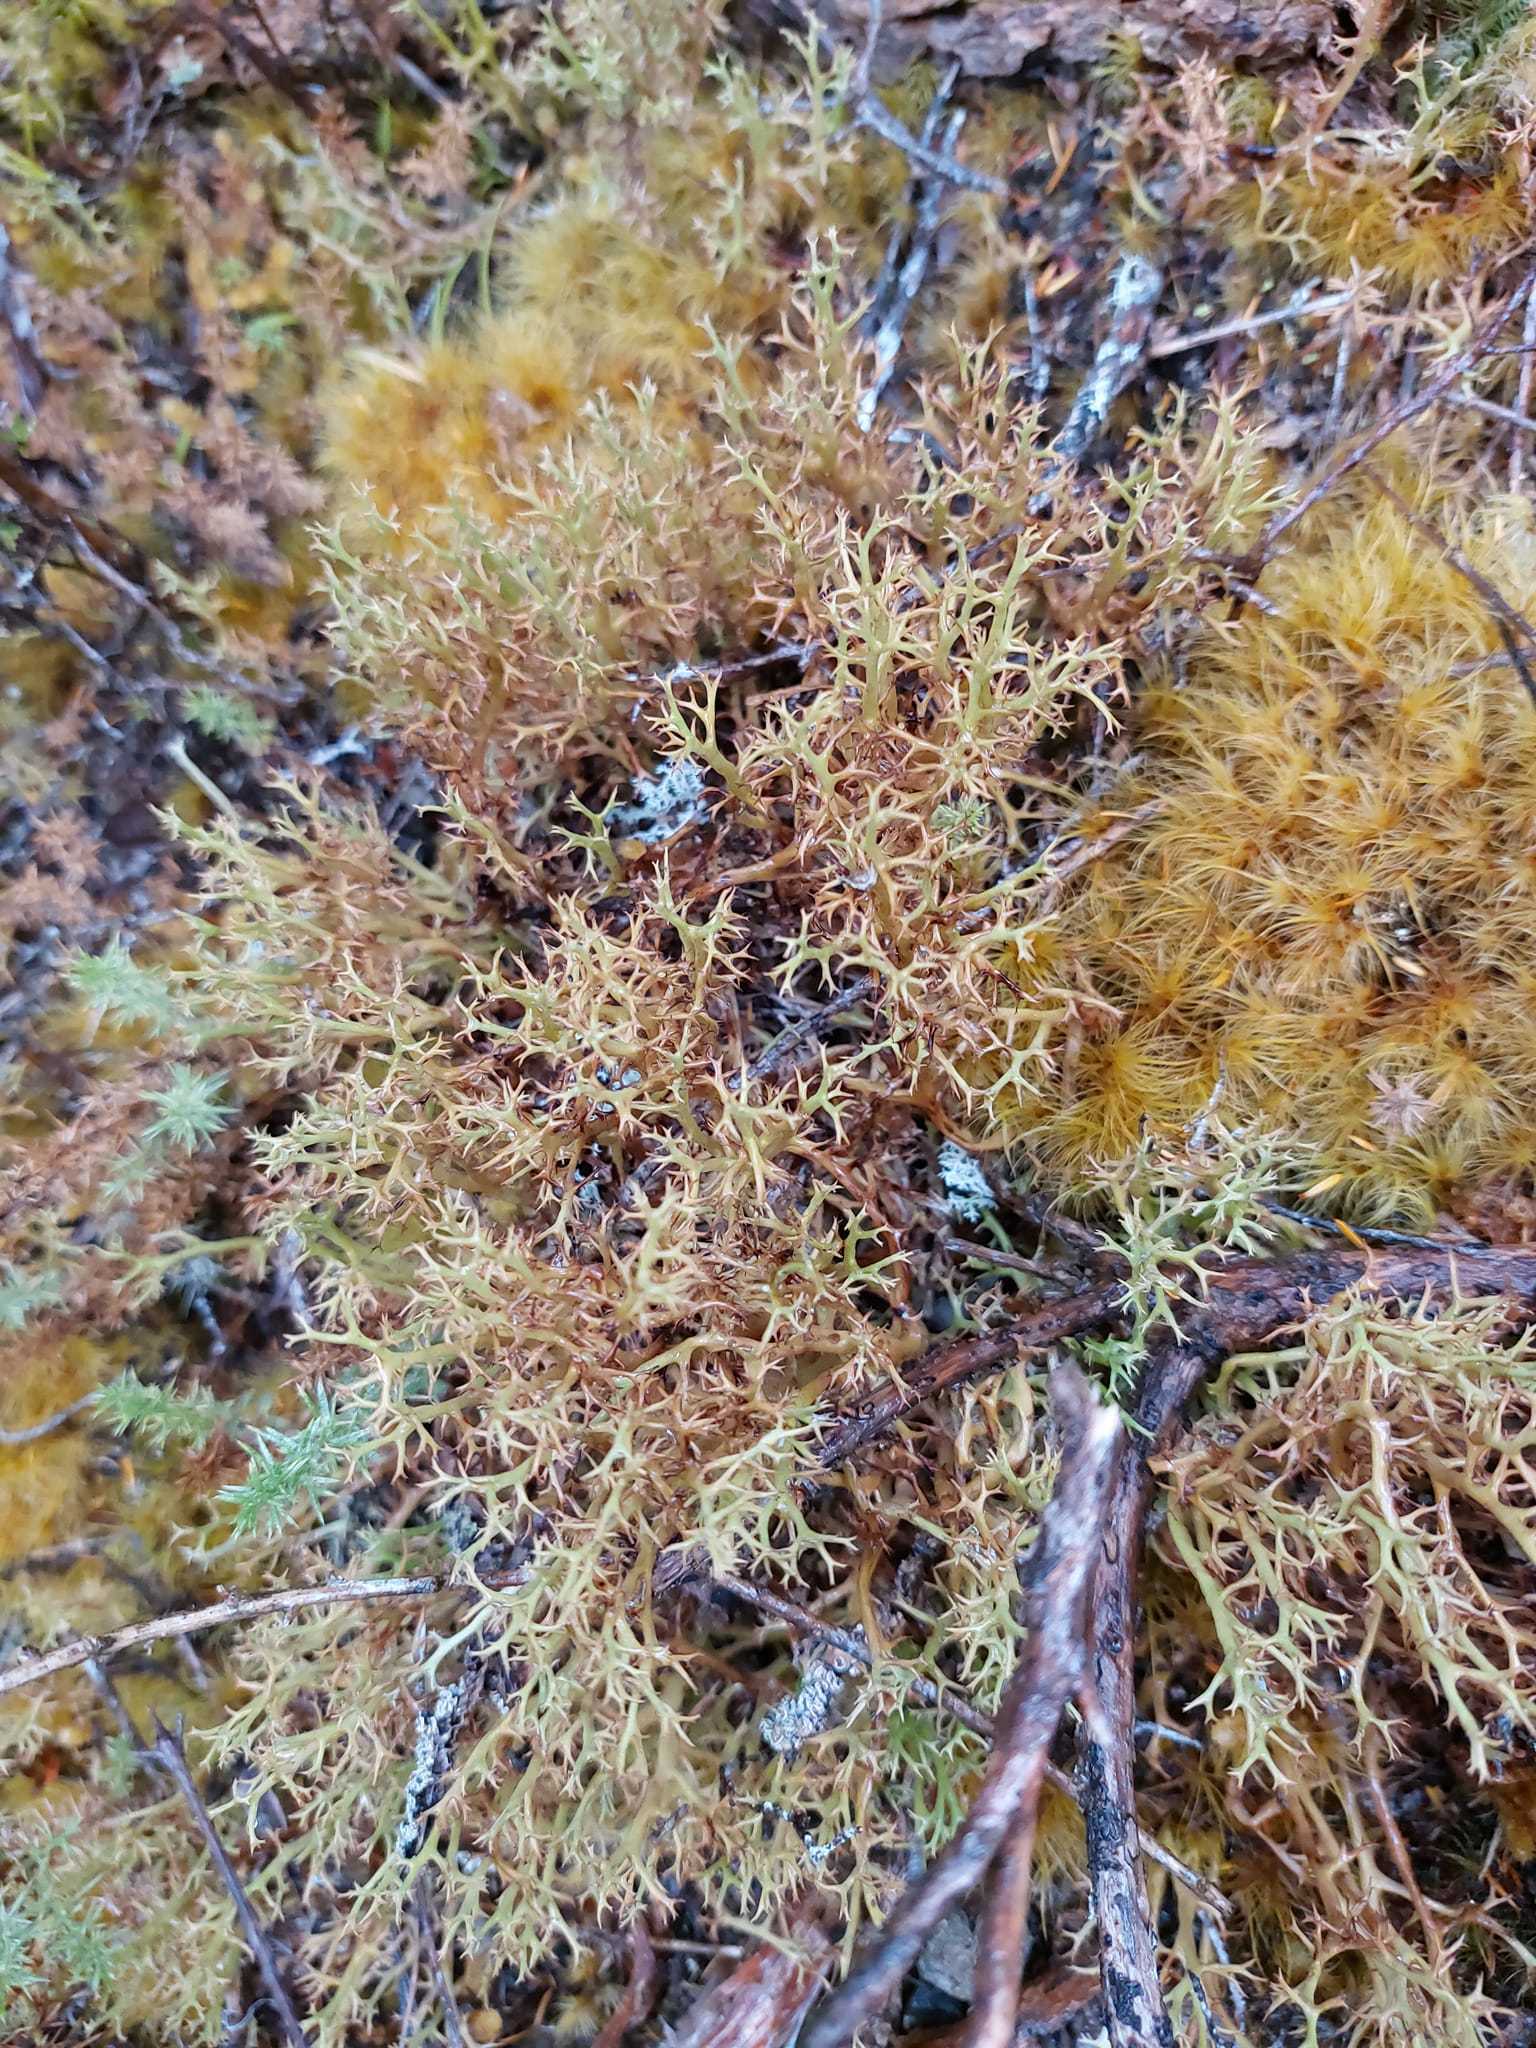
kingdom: Fungi
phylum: Ascomycota
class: Lecanoromycetes
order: Lecanorales
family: Cladoniaceae
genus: Cladia
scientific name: Cladia cryptica
